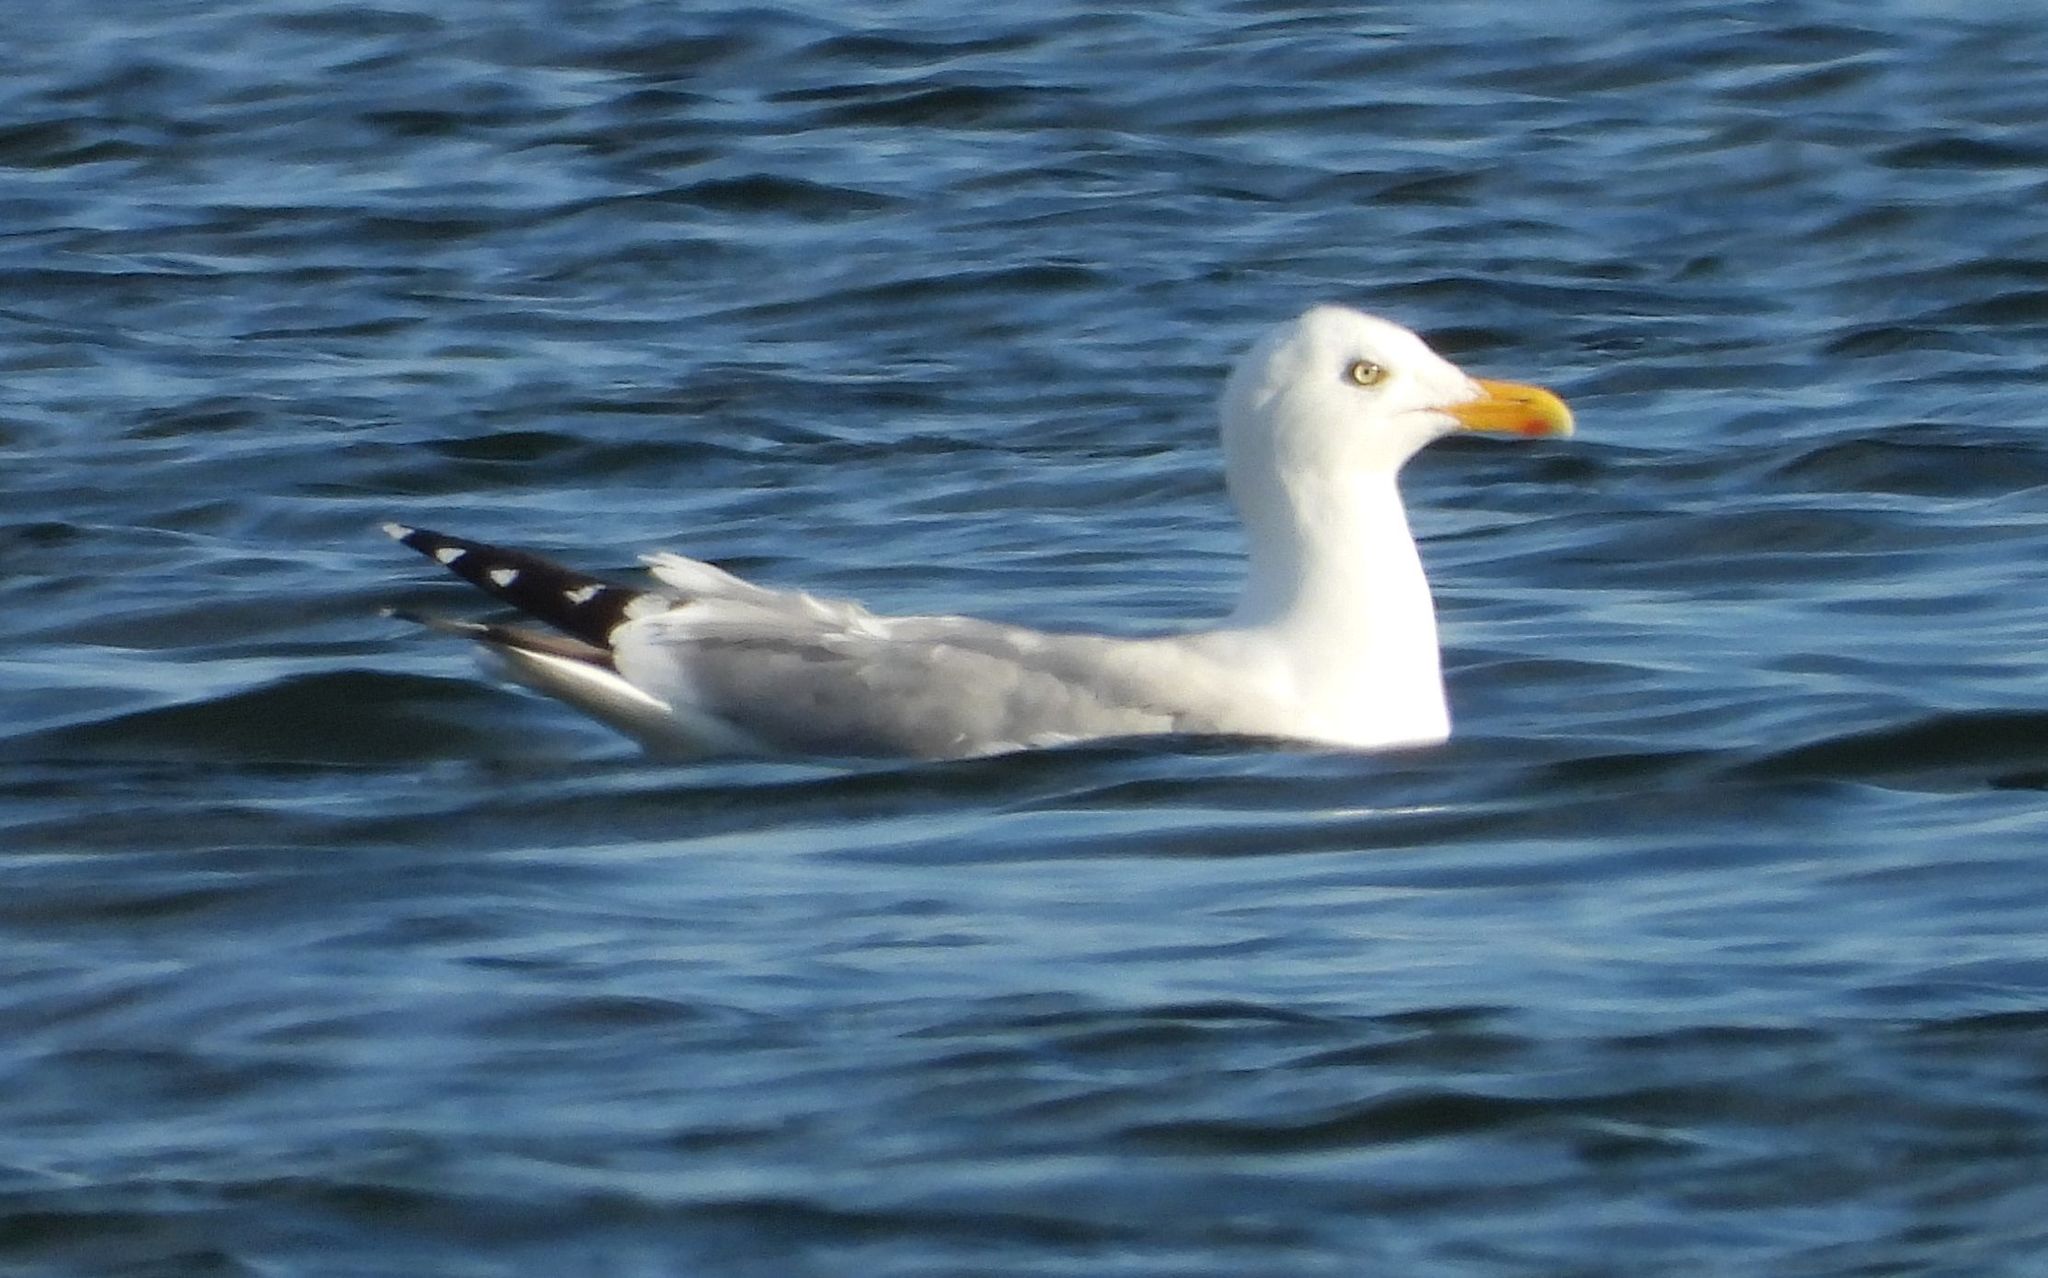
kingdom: Animalia
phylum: Chordata
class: Aves
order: Charadriiformes
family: Laridae
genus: Larus
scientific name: Larus argentatus
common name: Herring gull
